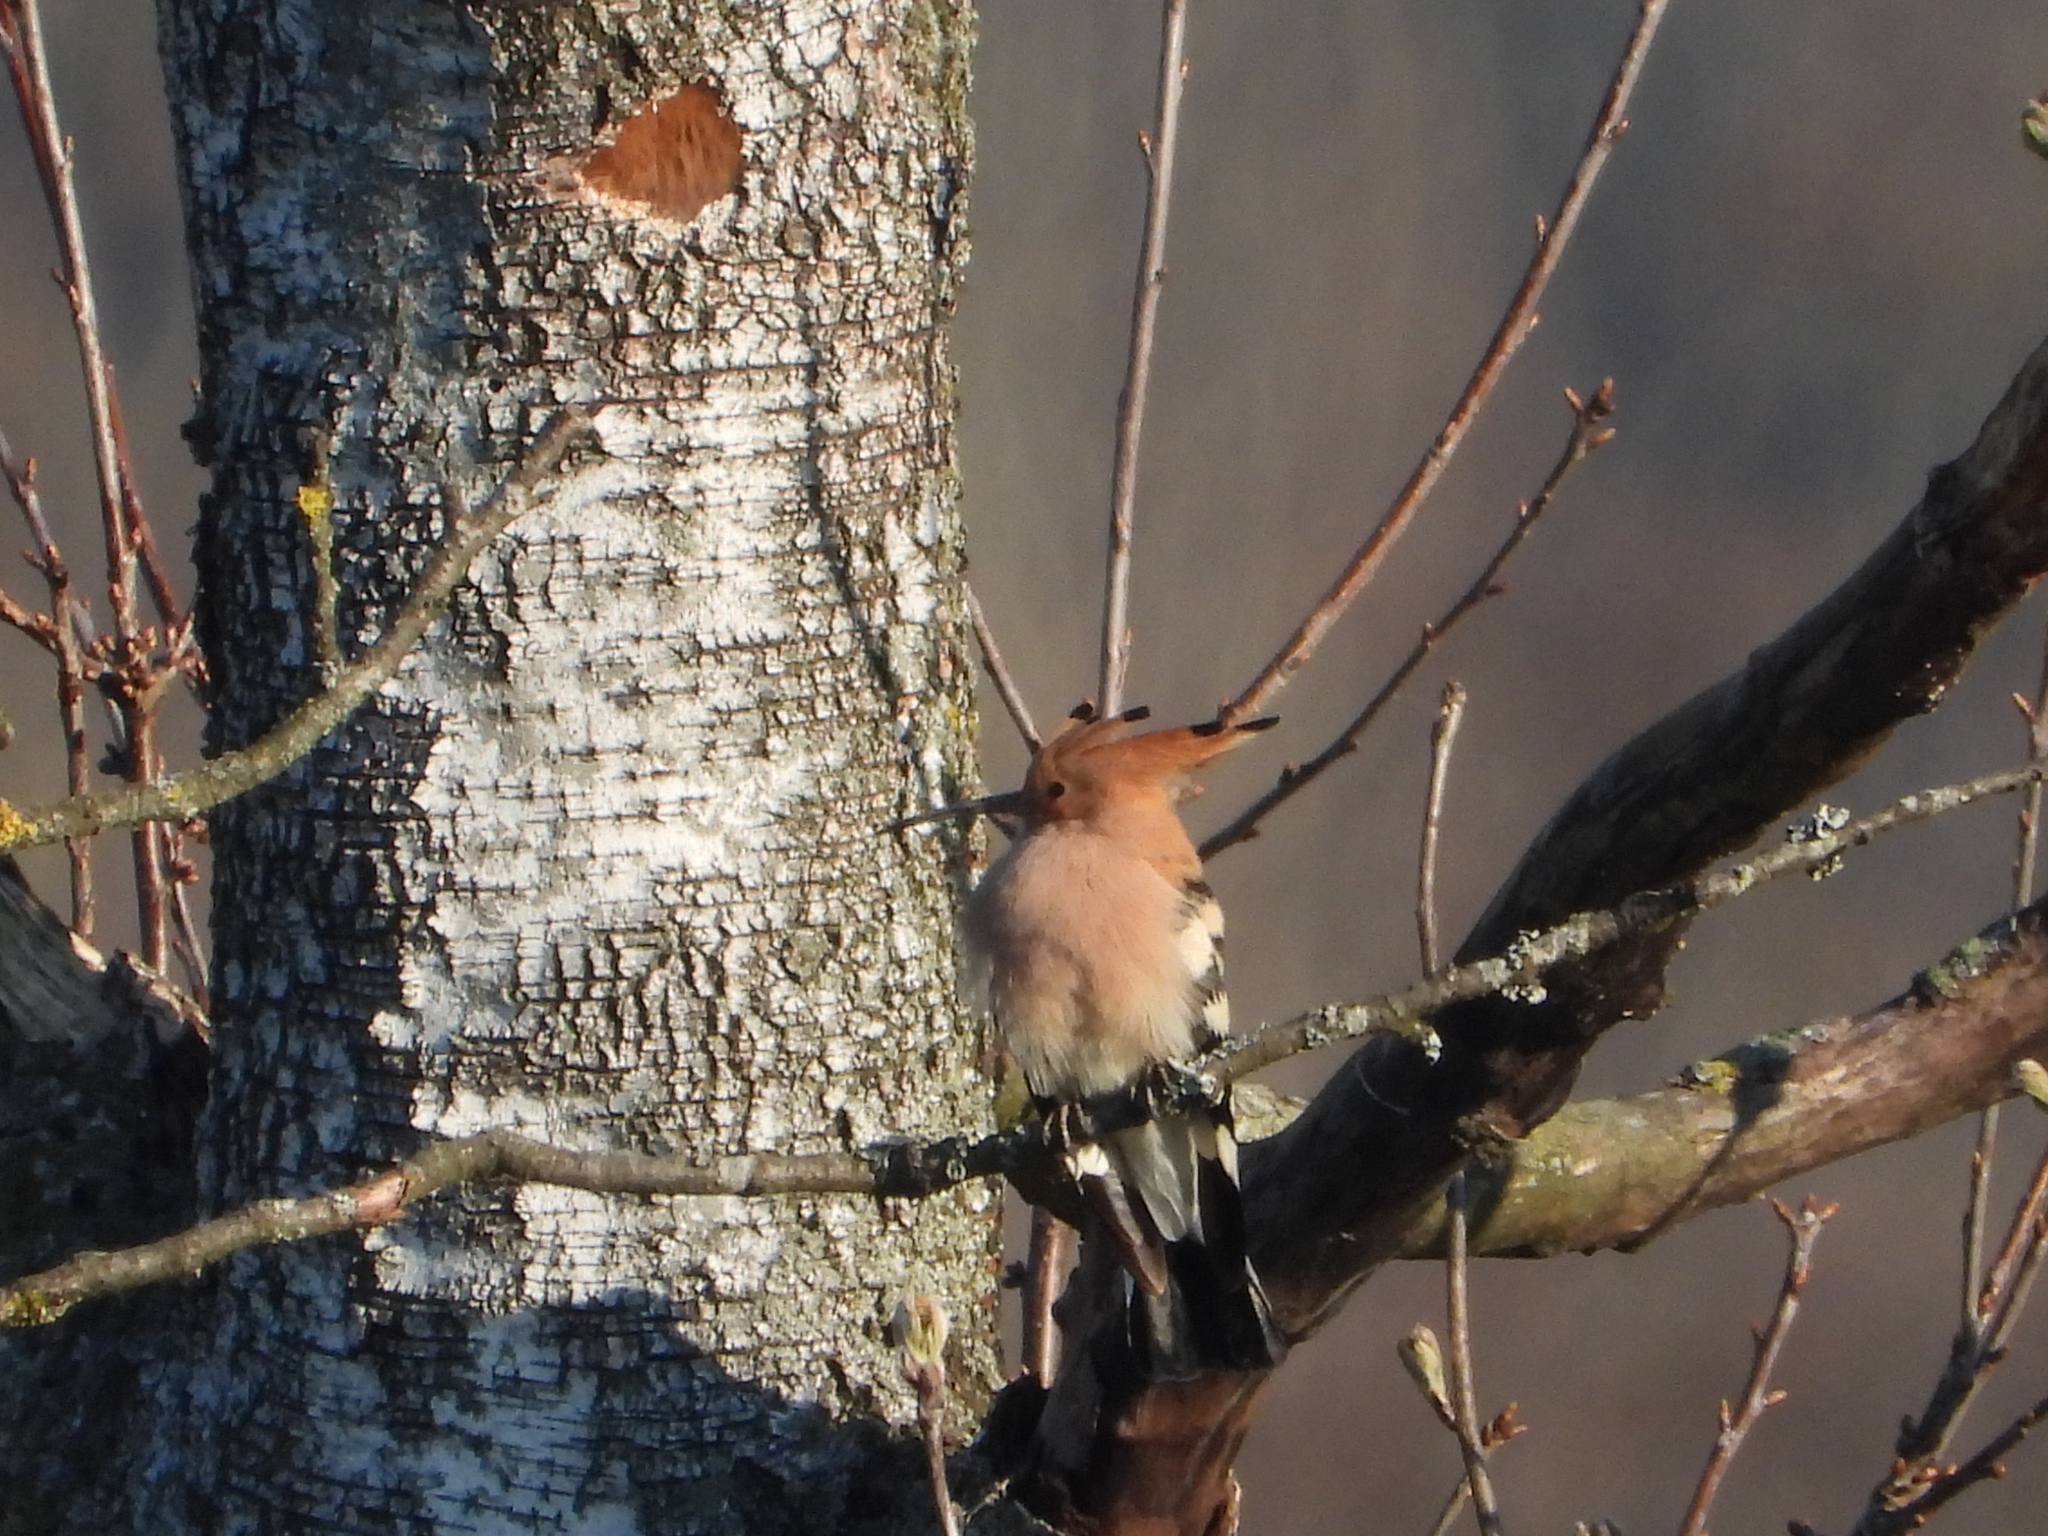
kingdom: Animalia
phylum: Chordata
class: Aves
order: Bucerotiformes
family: Upupidae
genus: Upupa
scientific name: Upupa epops
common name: Eurasian hoopoe
